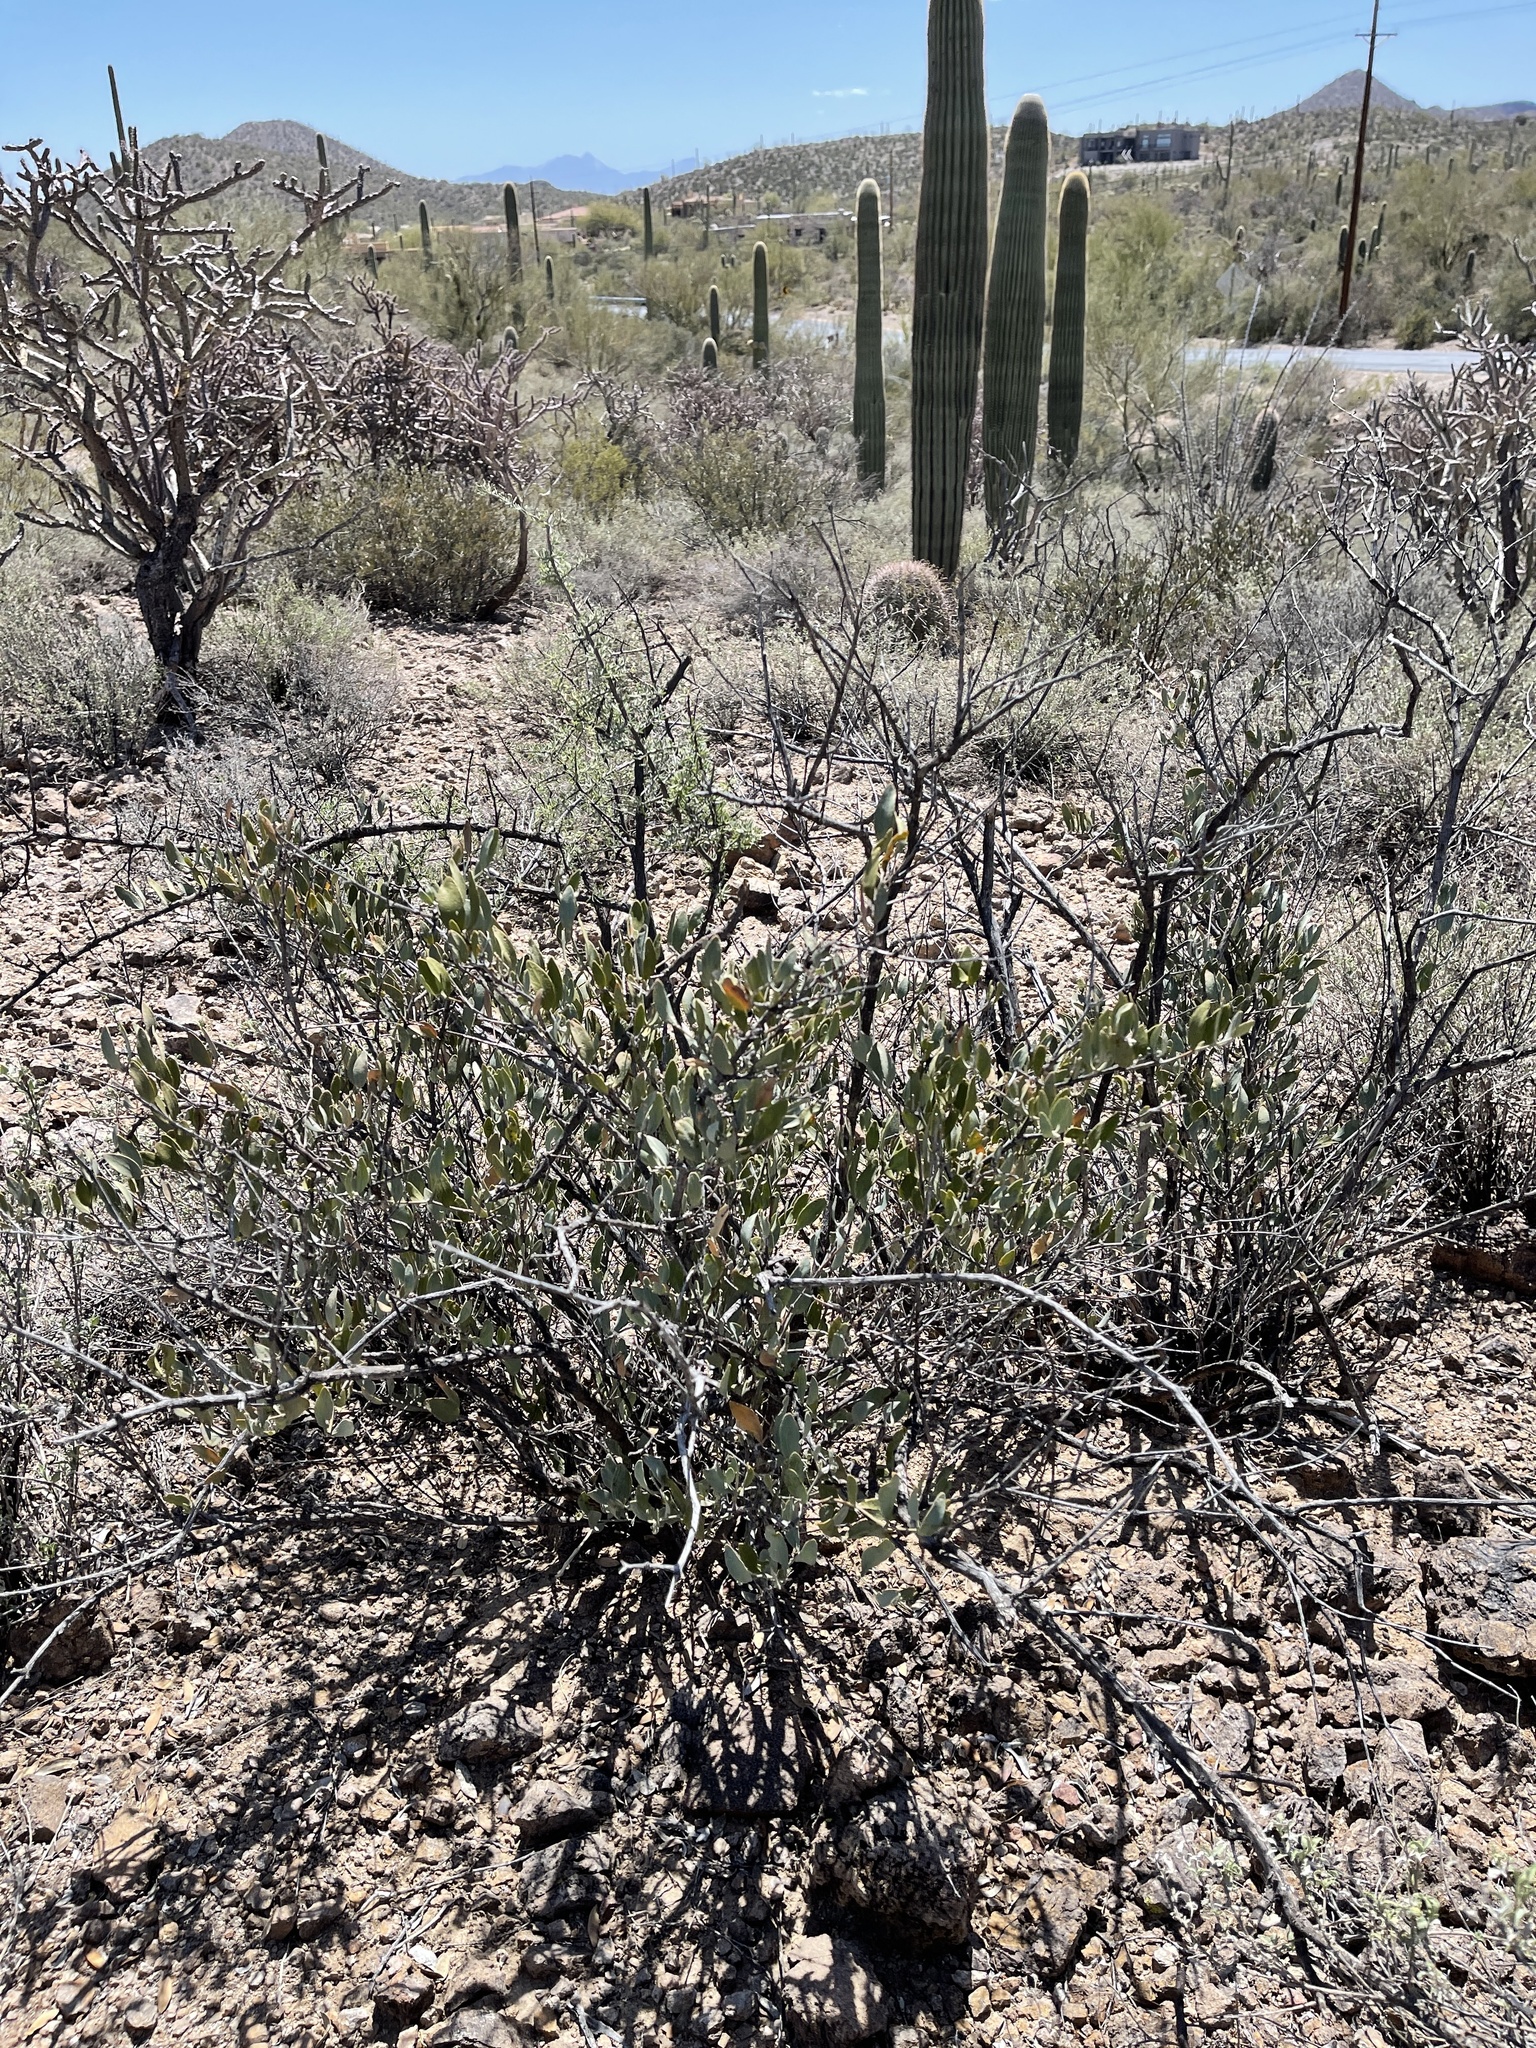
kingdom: Plantae
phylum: Tracheophyta
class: Magnoliopsida
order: Caryophyllales
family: Simmondsiaceae
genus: Simmondsia
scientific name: Simmondsia chinensis
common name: Jojoba
